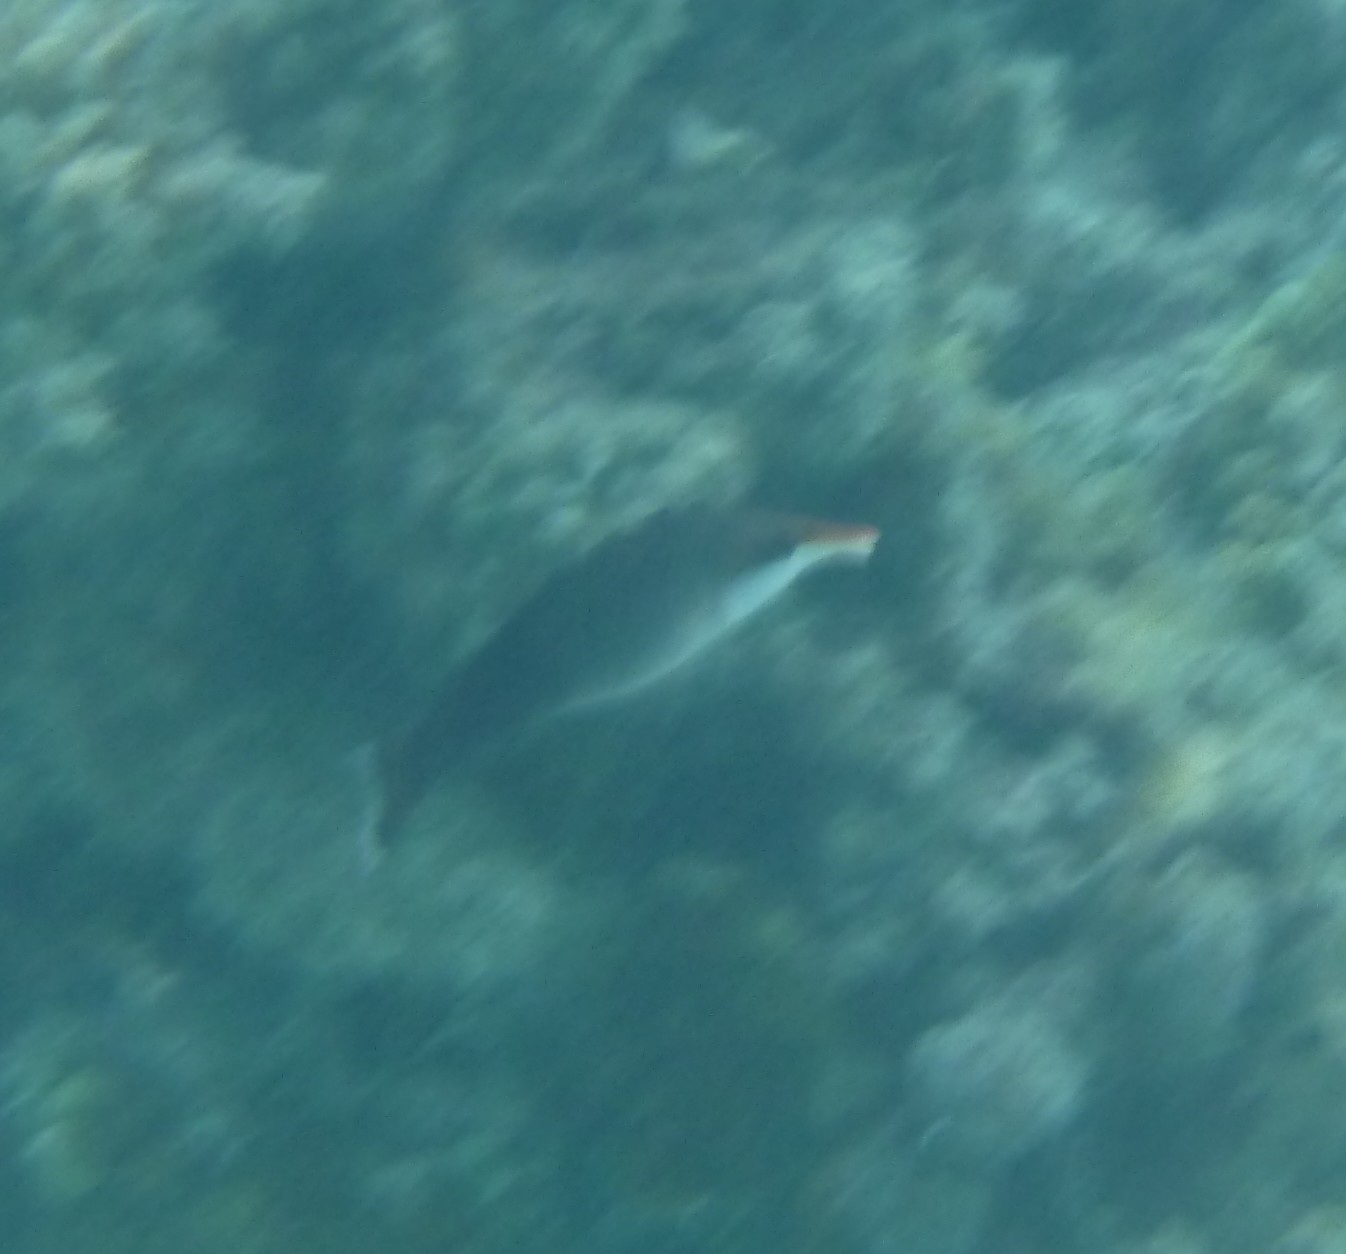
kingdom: Animalia
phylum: Chordata
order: Perciformes
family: Labridae
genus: Gomphosus
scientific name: Gomphosus varius
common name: Bird wrasse
